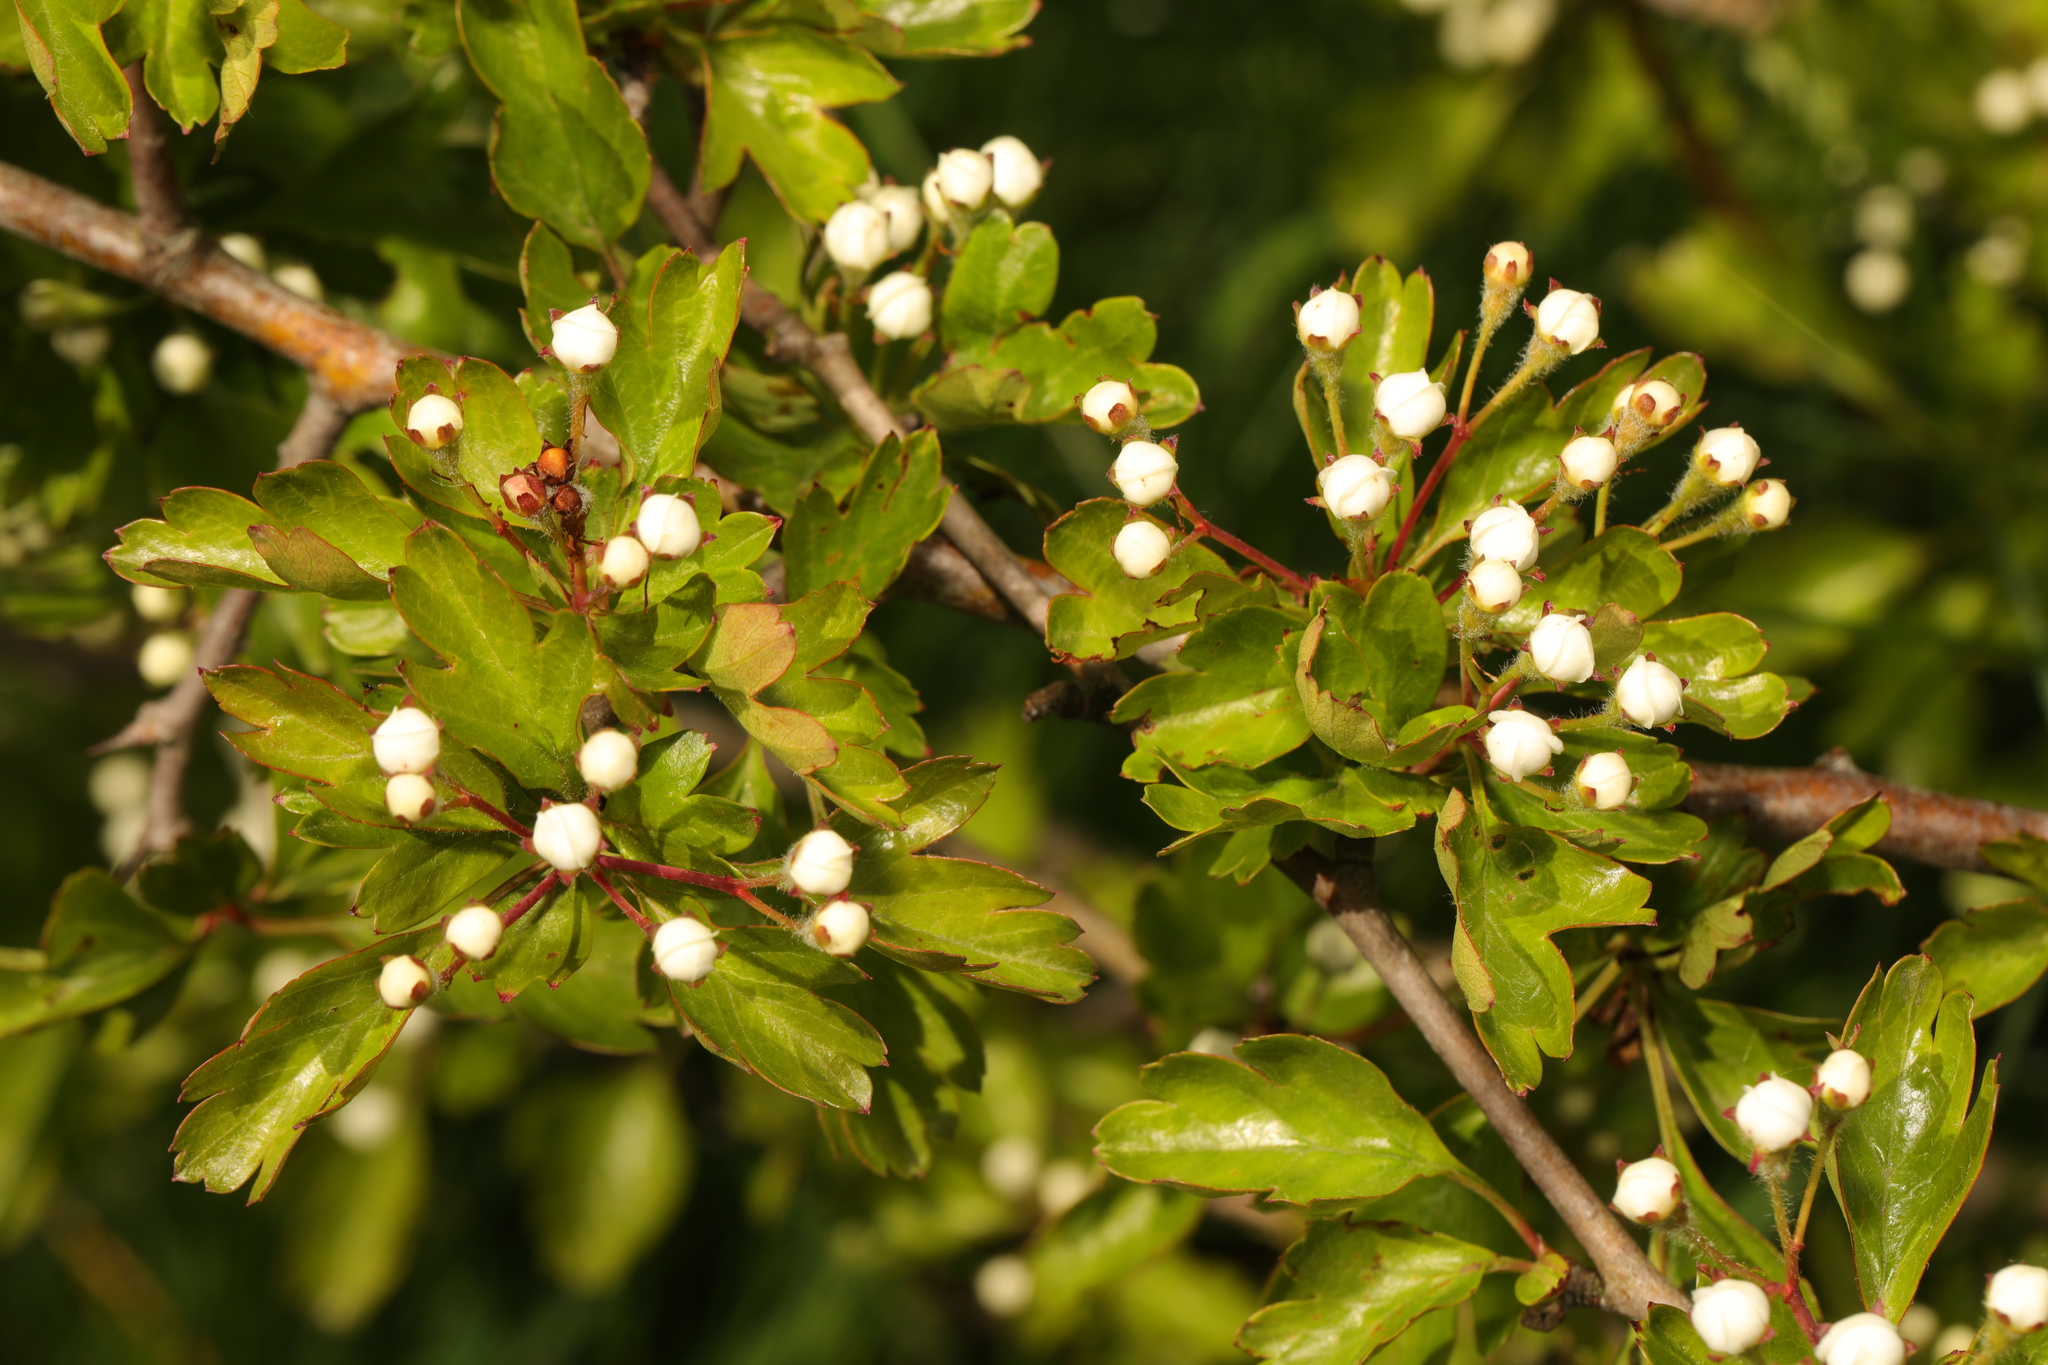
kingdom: Plantae
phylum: Tracheophyta
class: Magnoliopsida
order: Rosales
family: Rosaceae
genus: Crataegus
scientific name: Crataegus monogyna
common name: Hawthorn
